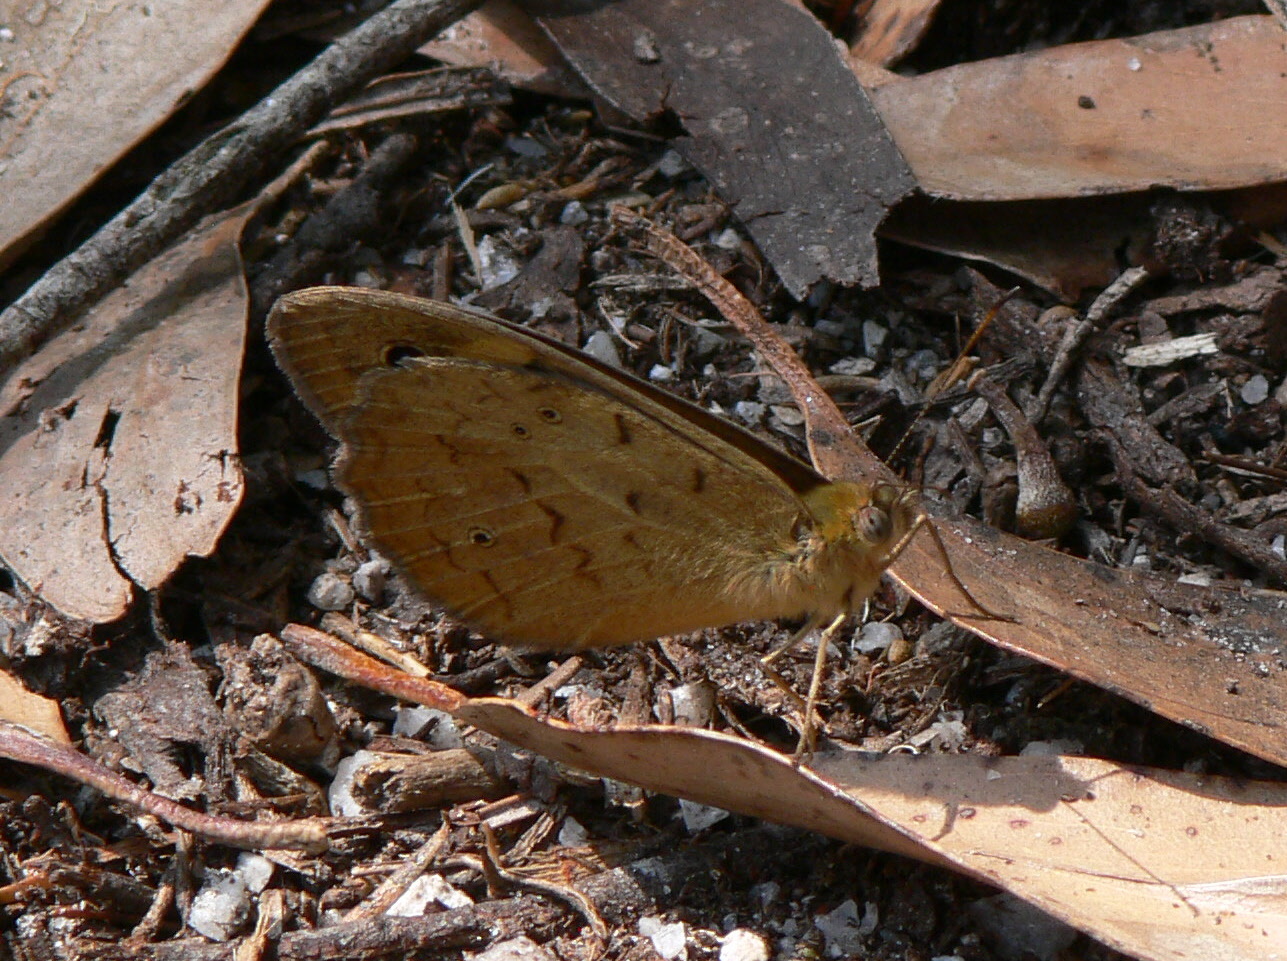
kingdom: Animalia
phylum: Arthropoda
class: Insecta
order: Lepidoptera
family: Nymphalidae
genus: Heteronympha
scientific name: Heteronympha merope
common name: Common brown
